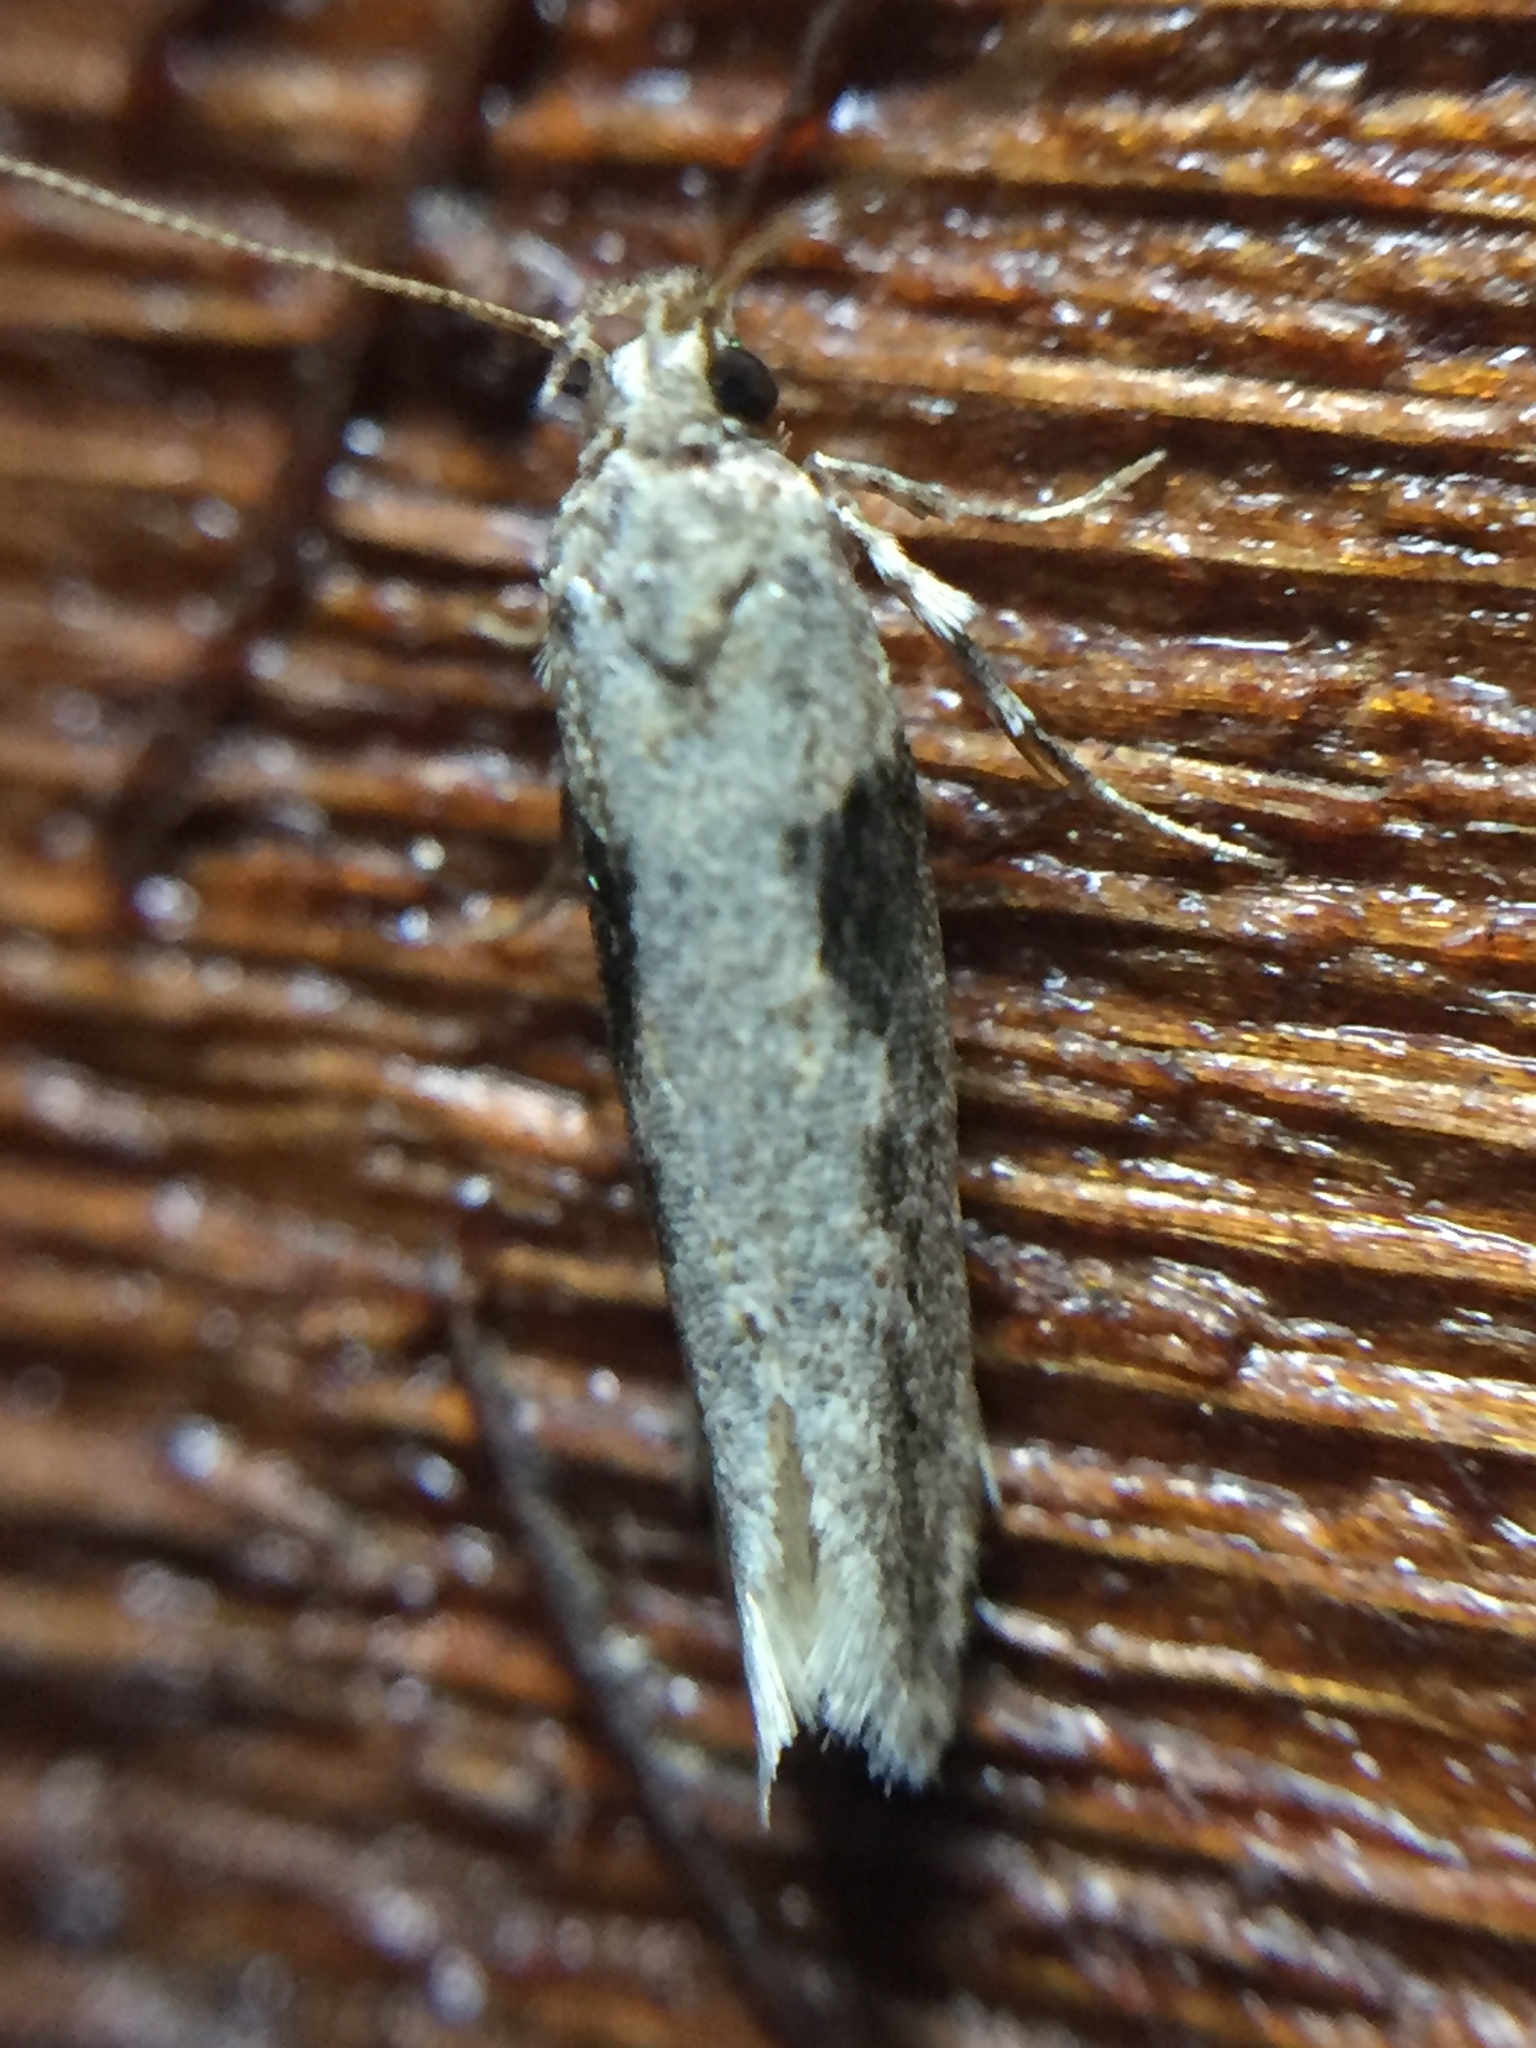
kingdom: Animalia
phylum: Arthropoda
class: Insecta
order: Lepidoptera
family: Gelechiidae
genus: Symmetrischema
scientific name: Symmetrischema tangolias
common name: Moth
